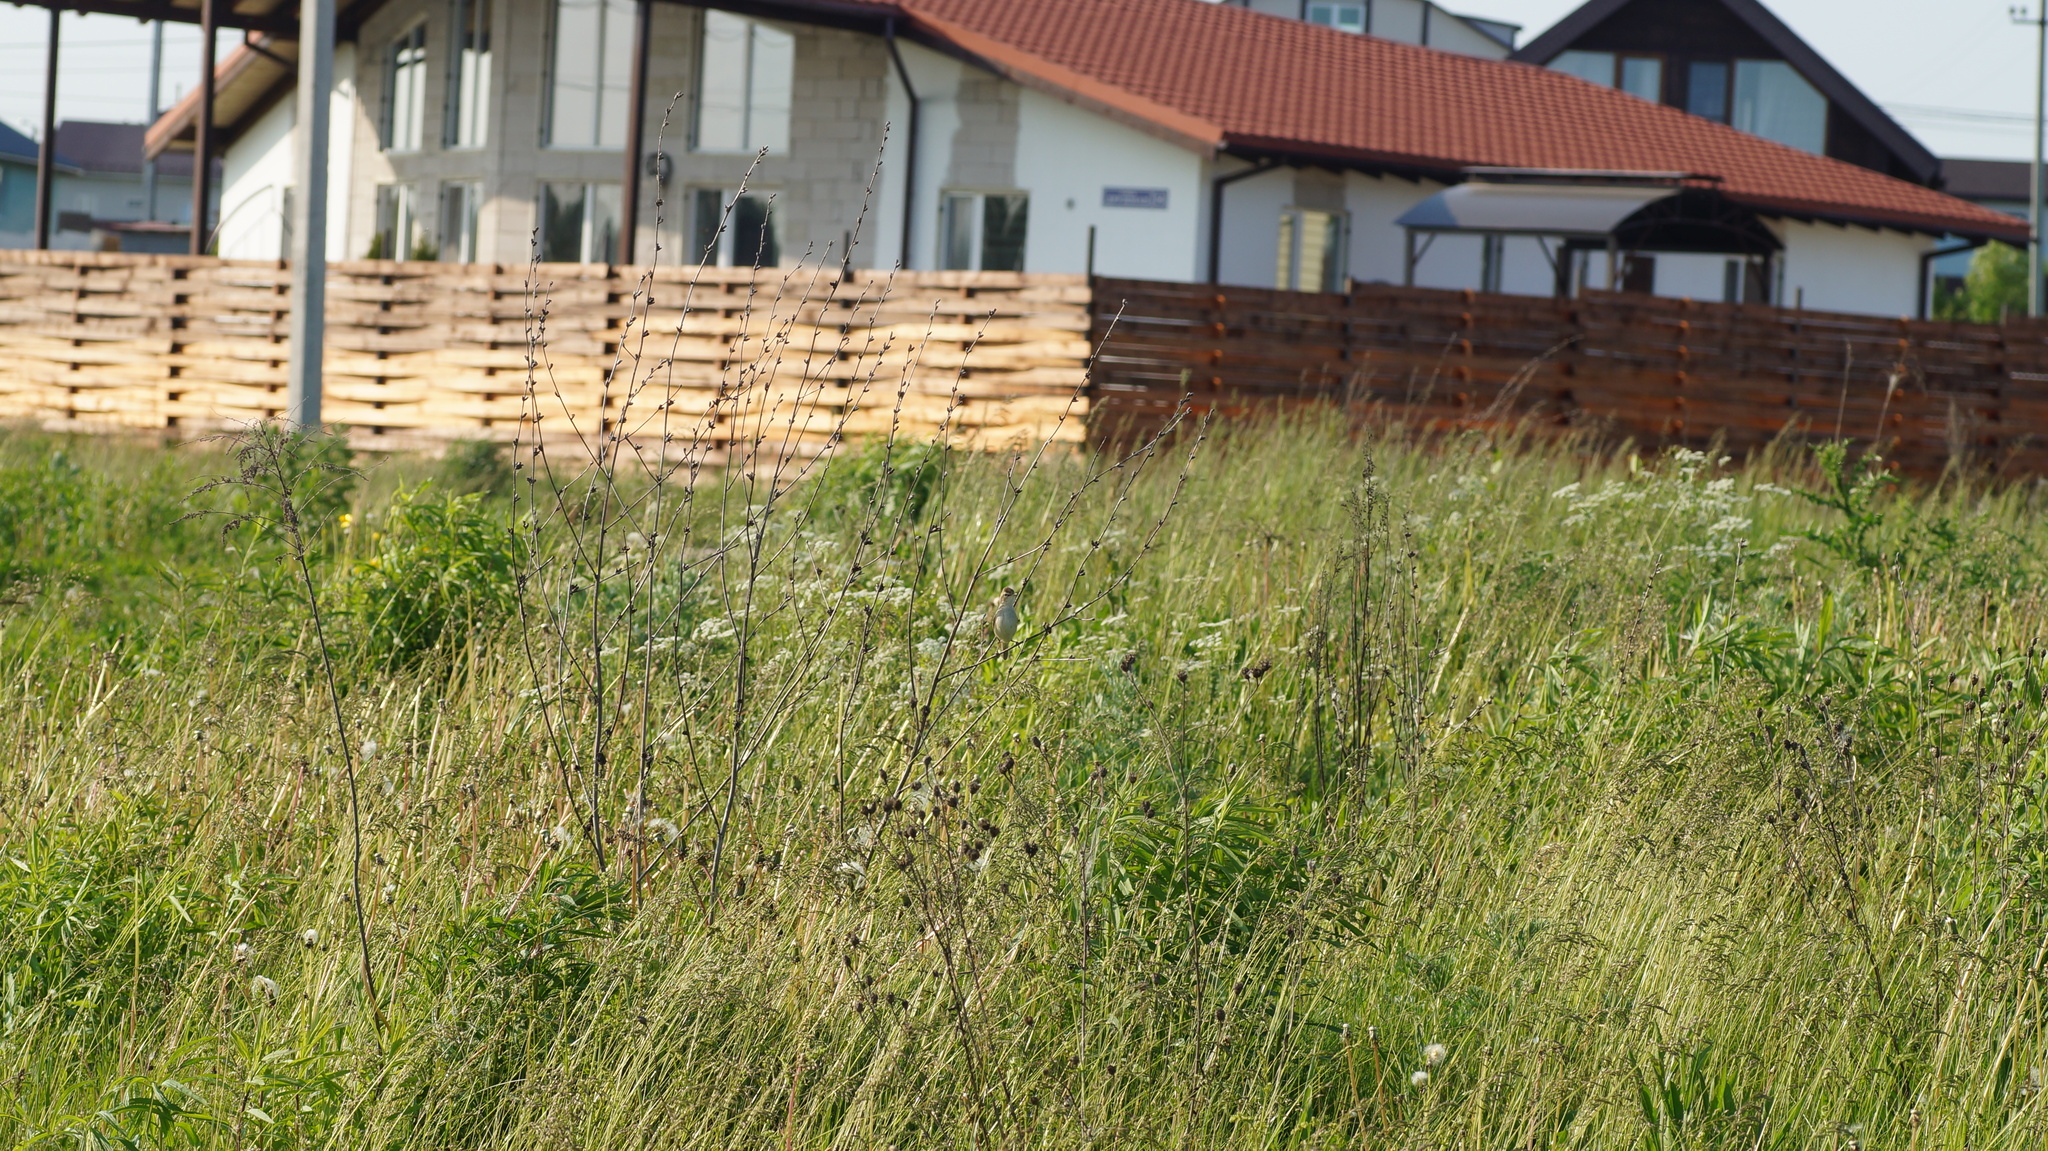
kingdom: Animalia
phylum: Chordata
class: Aves
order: Passeriformes
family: Acrocephalidae
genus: Acrocephalus
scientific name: Acrocephalus palustris
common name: Marsh warbler
